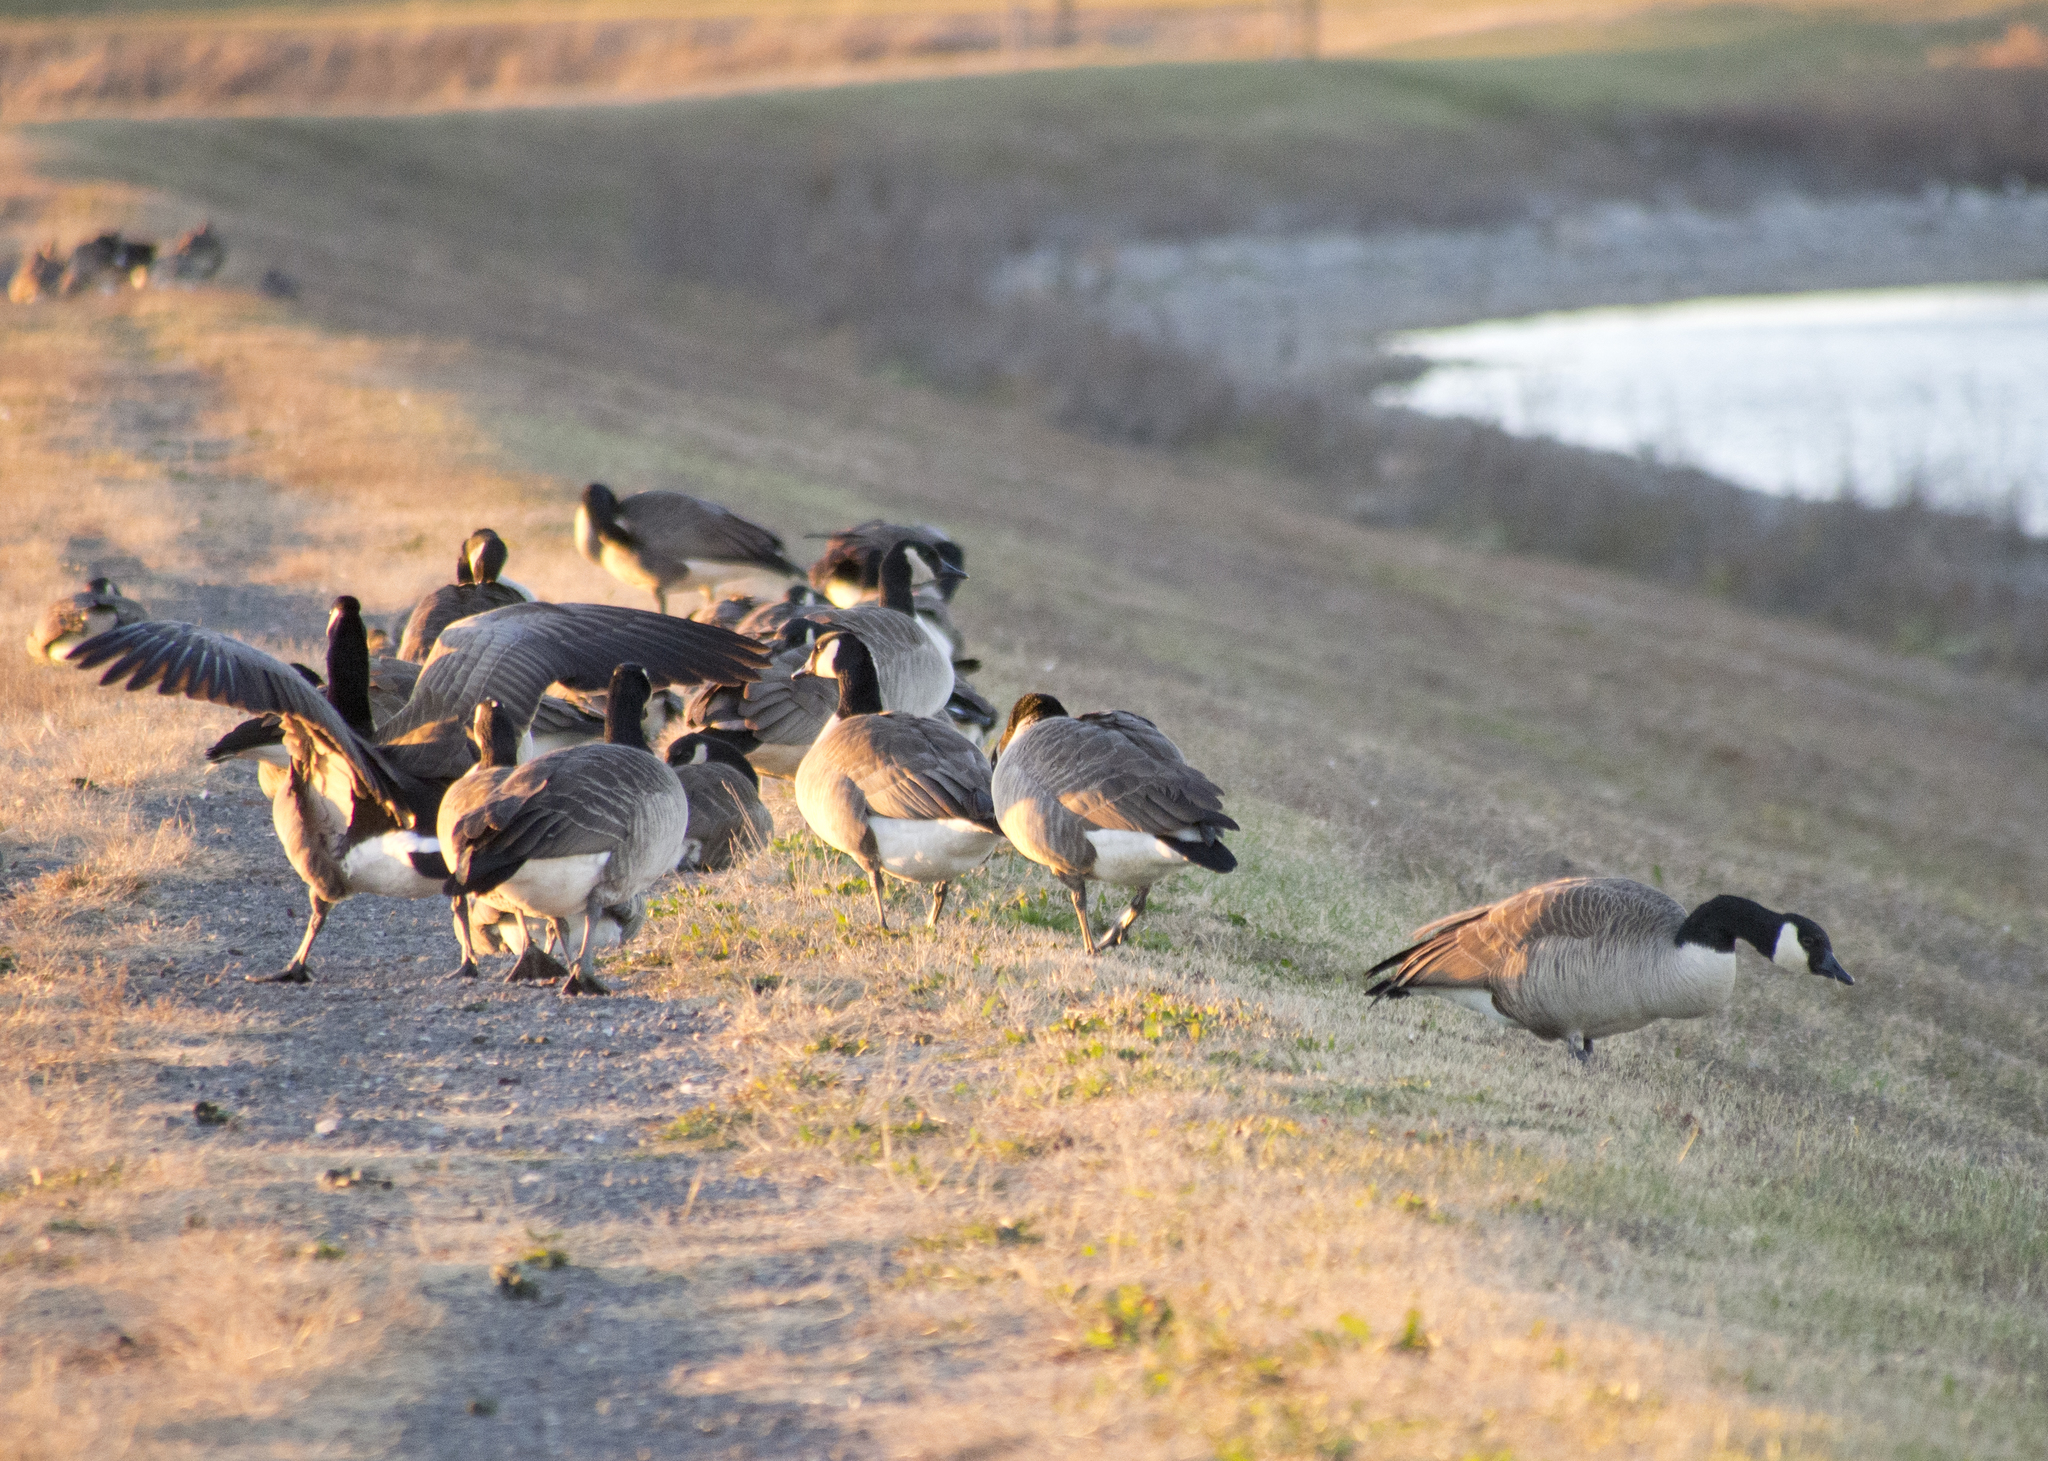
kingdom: Animalia
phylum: Chordata
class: Aves
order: Anseriformes
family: Anatidae
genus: Branta
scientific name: Branta canadensis
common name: Canada goose
